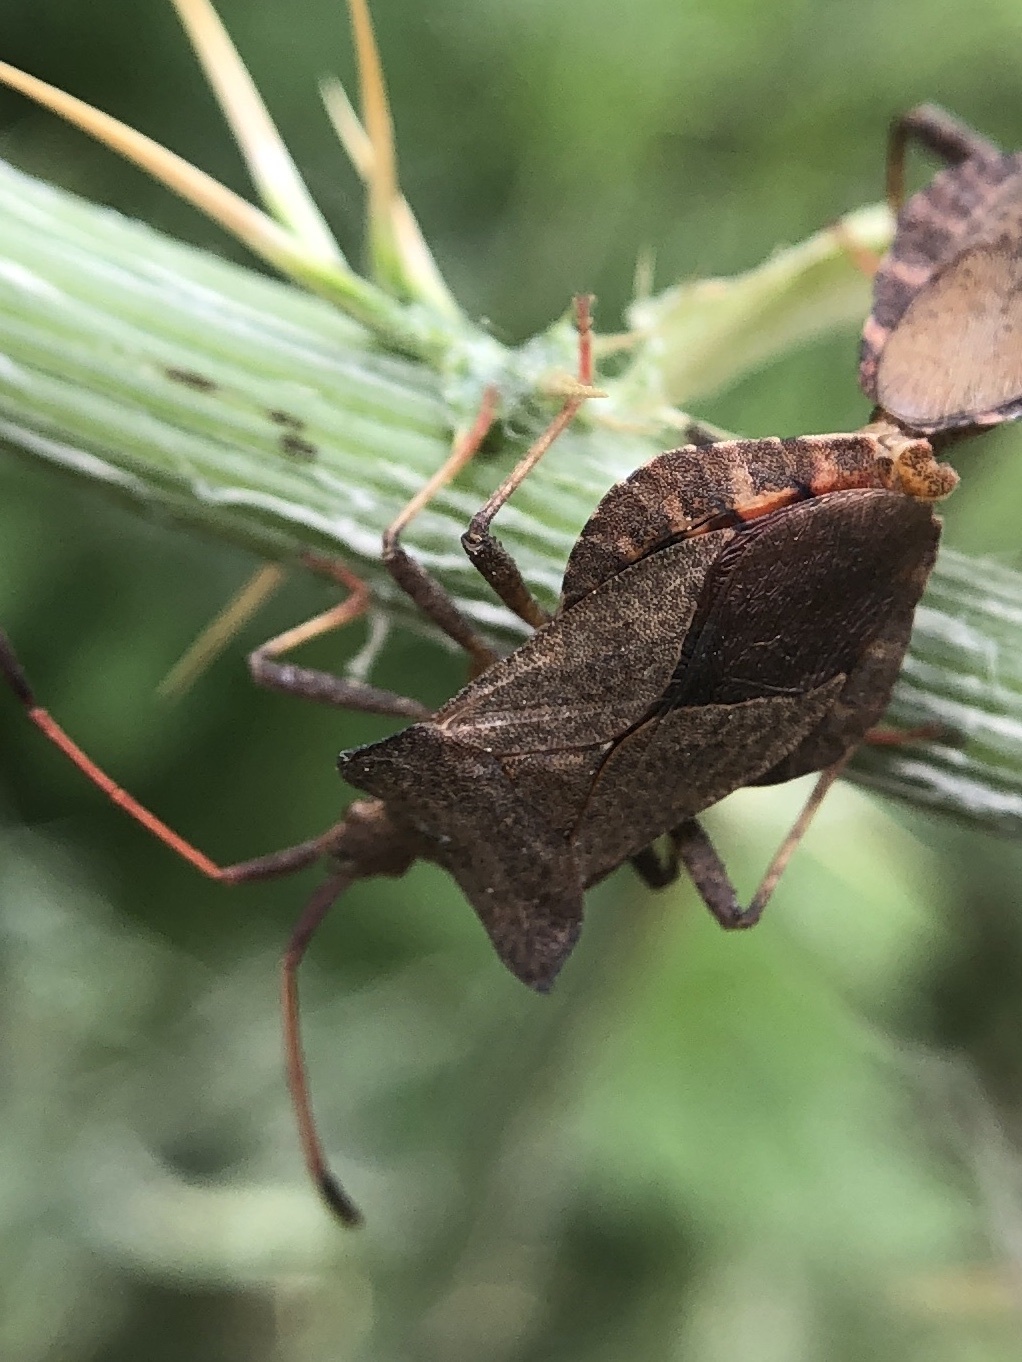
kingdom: Animalia
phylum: Arthropoda
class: Insecta
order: Hemiptera
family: Coreidae
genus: Coreus
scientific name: Coreus marginatus
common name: Dock bug
